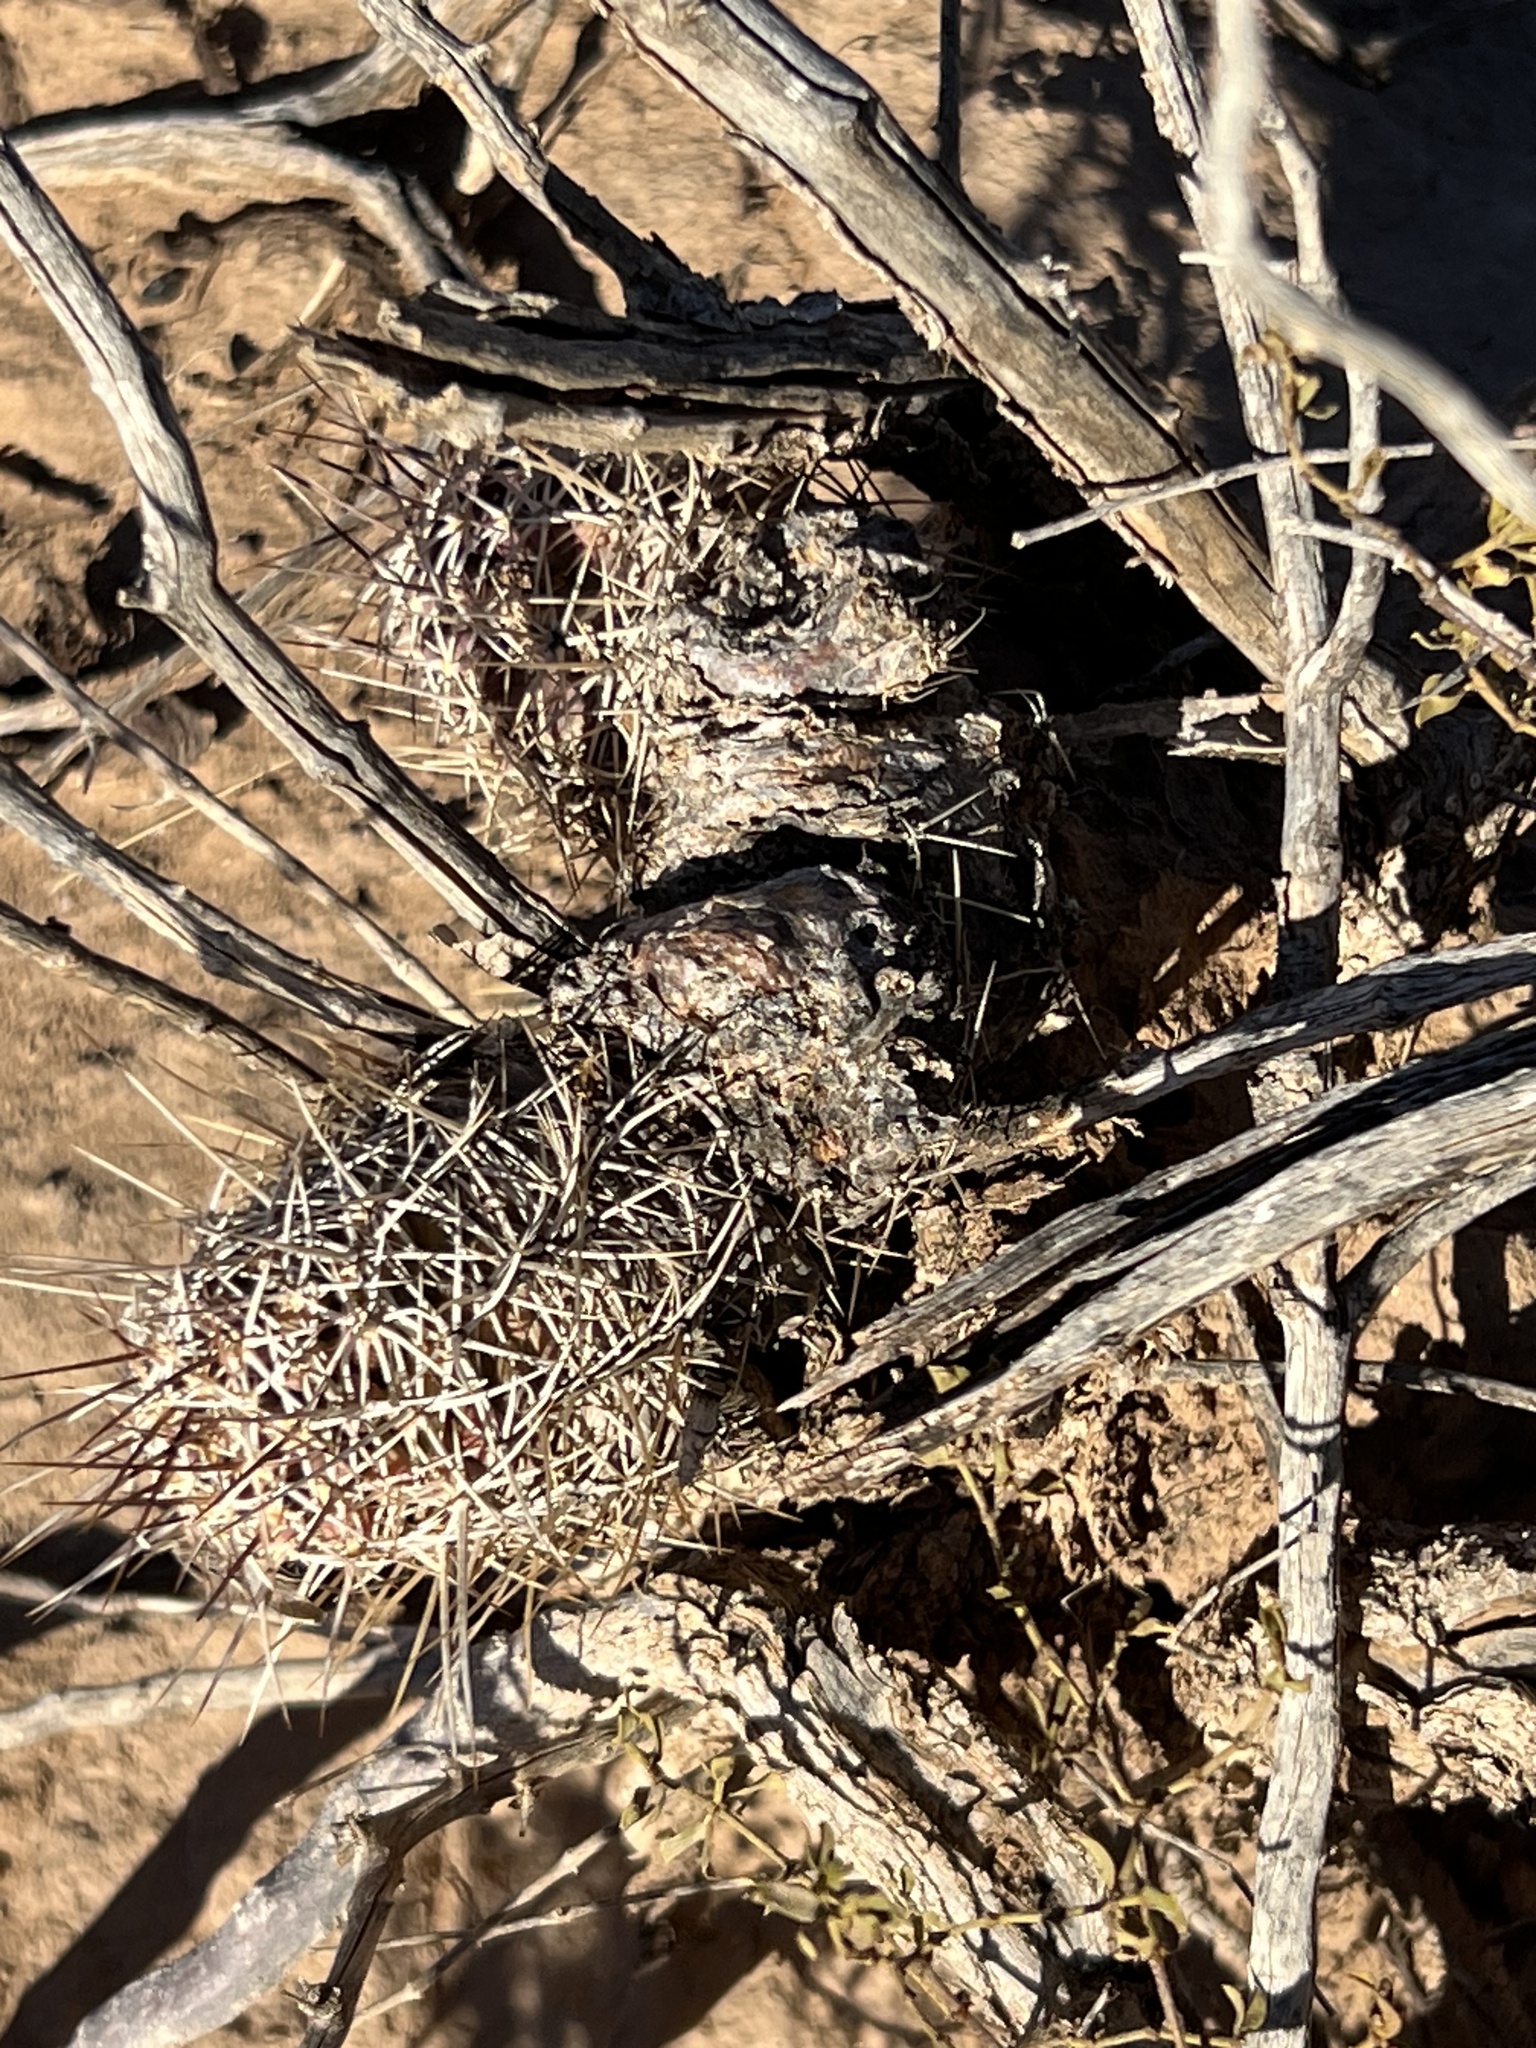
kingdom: Plantae
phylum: Tracheophyta
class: Magnoliopsida
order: Caryophyllales
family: Cactaceae
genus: Echinocereus
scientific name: Echinocereus fendleri
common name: Fendler's hedgehog cactus
